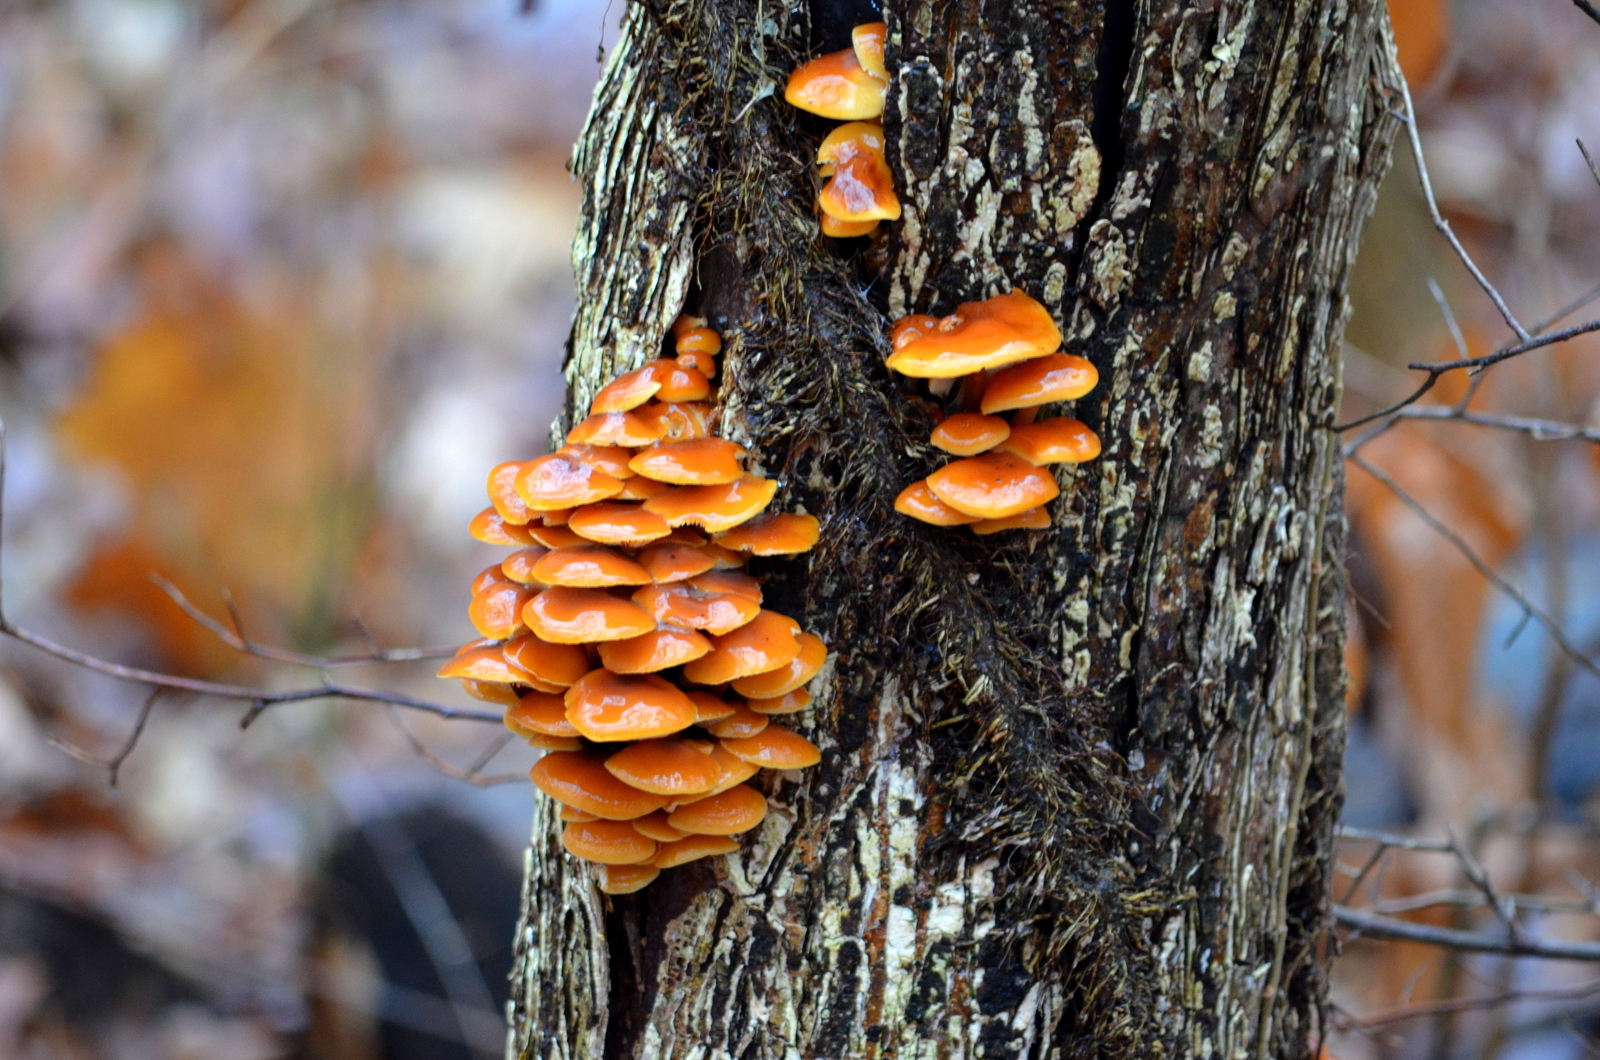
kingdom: Fungi
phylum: Basidiomycota
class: Agaricomycetes
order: Agaricales
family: Physalacriaceae
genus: Flammulina
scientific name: Flammulina velutipes
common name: Velvet shank
